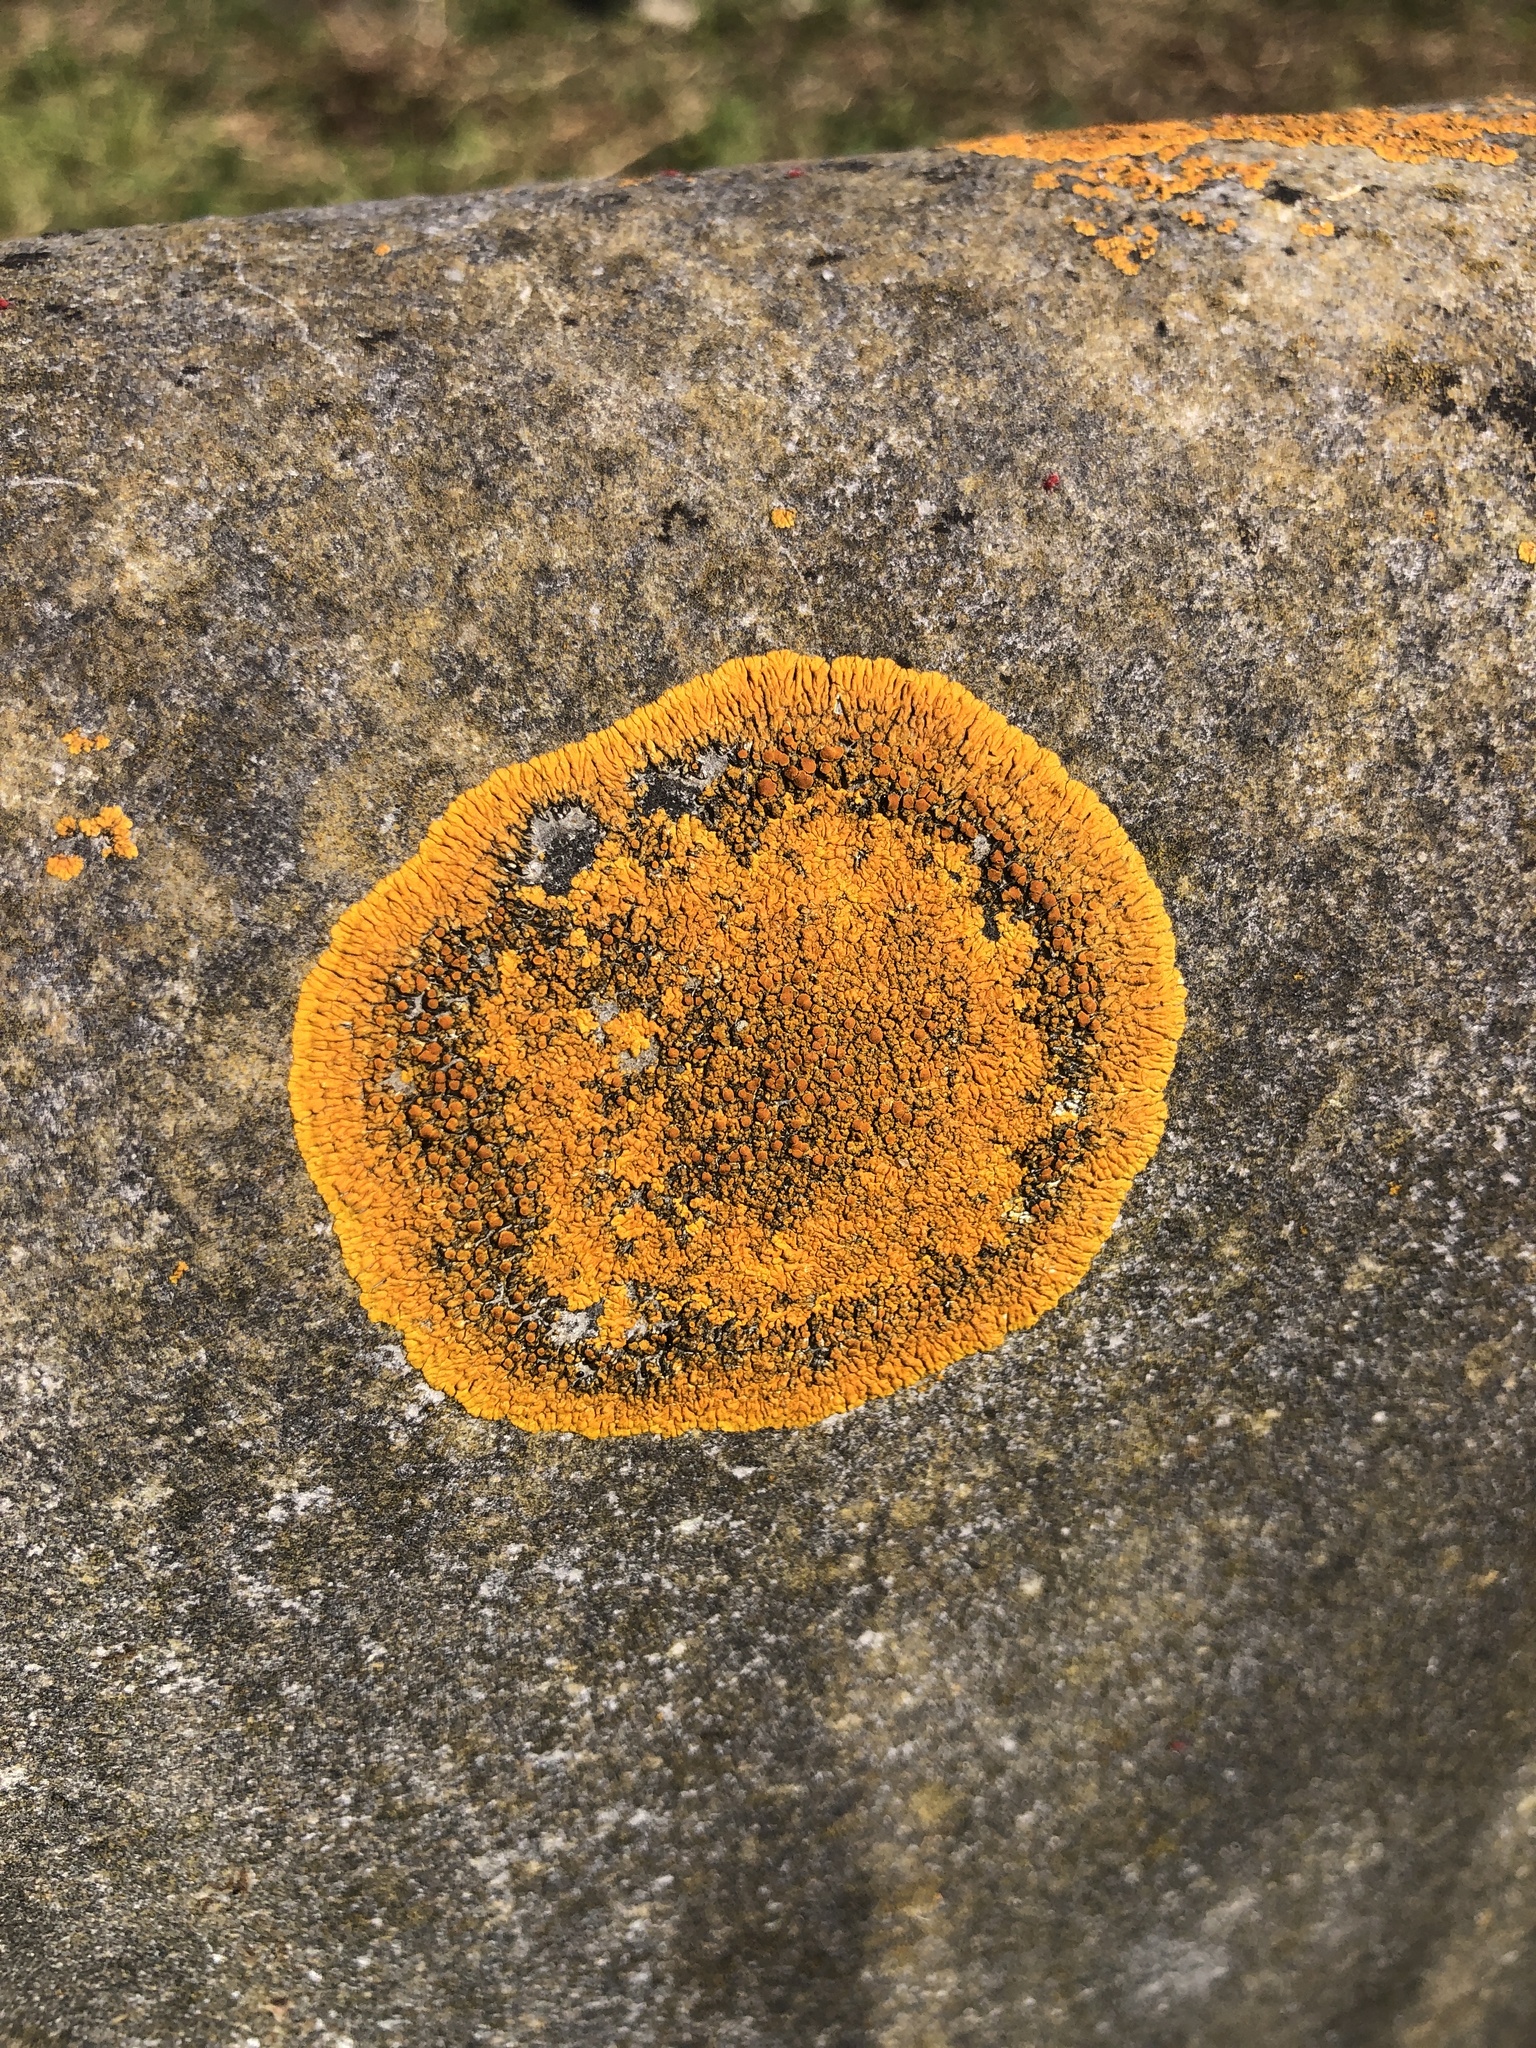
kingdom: Fungi
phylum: Ascomycota
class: Lecanoromycetes
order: Teloschistales
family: Teloschistaceae
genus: Variospora
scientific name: Variospora flavescens
